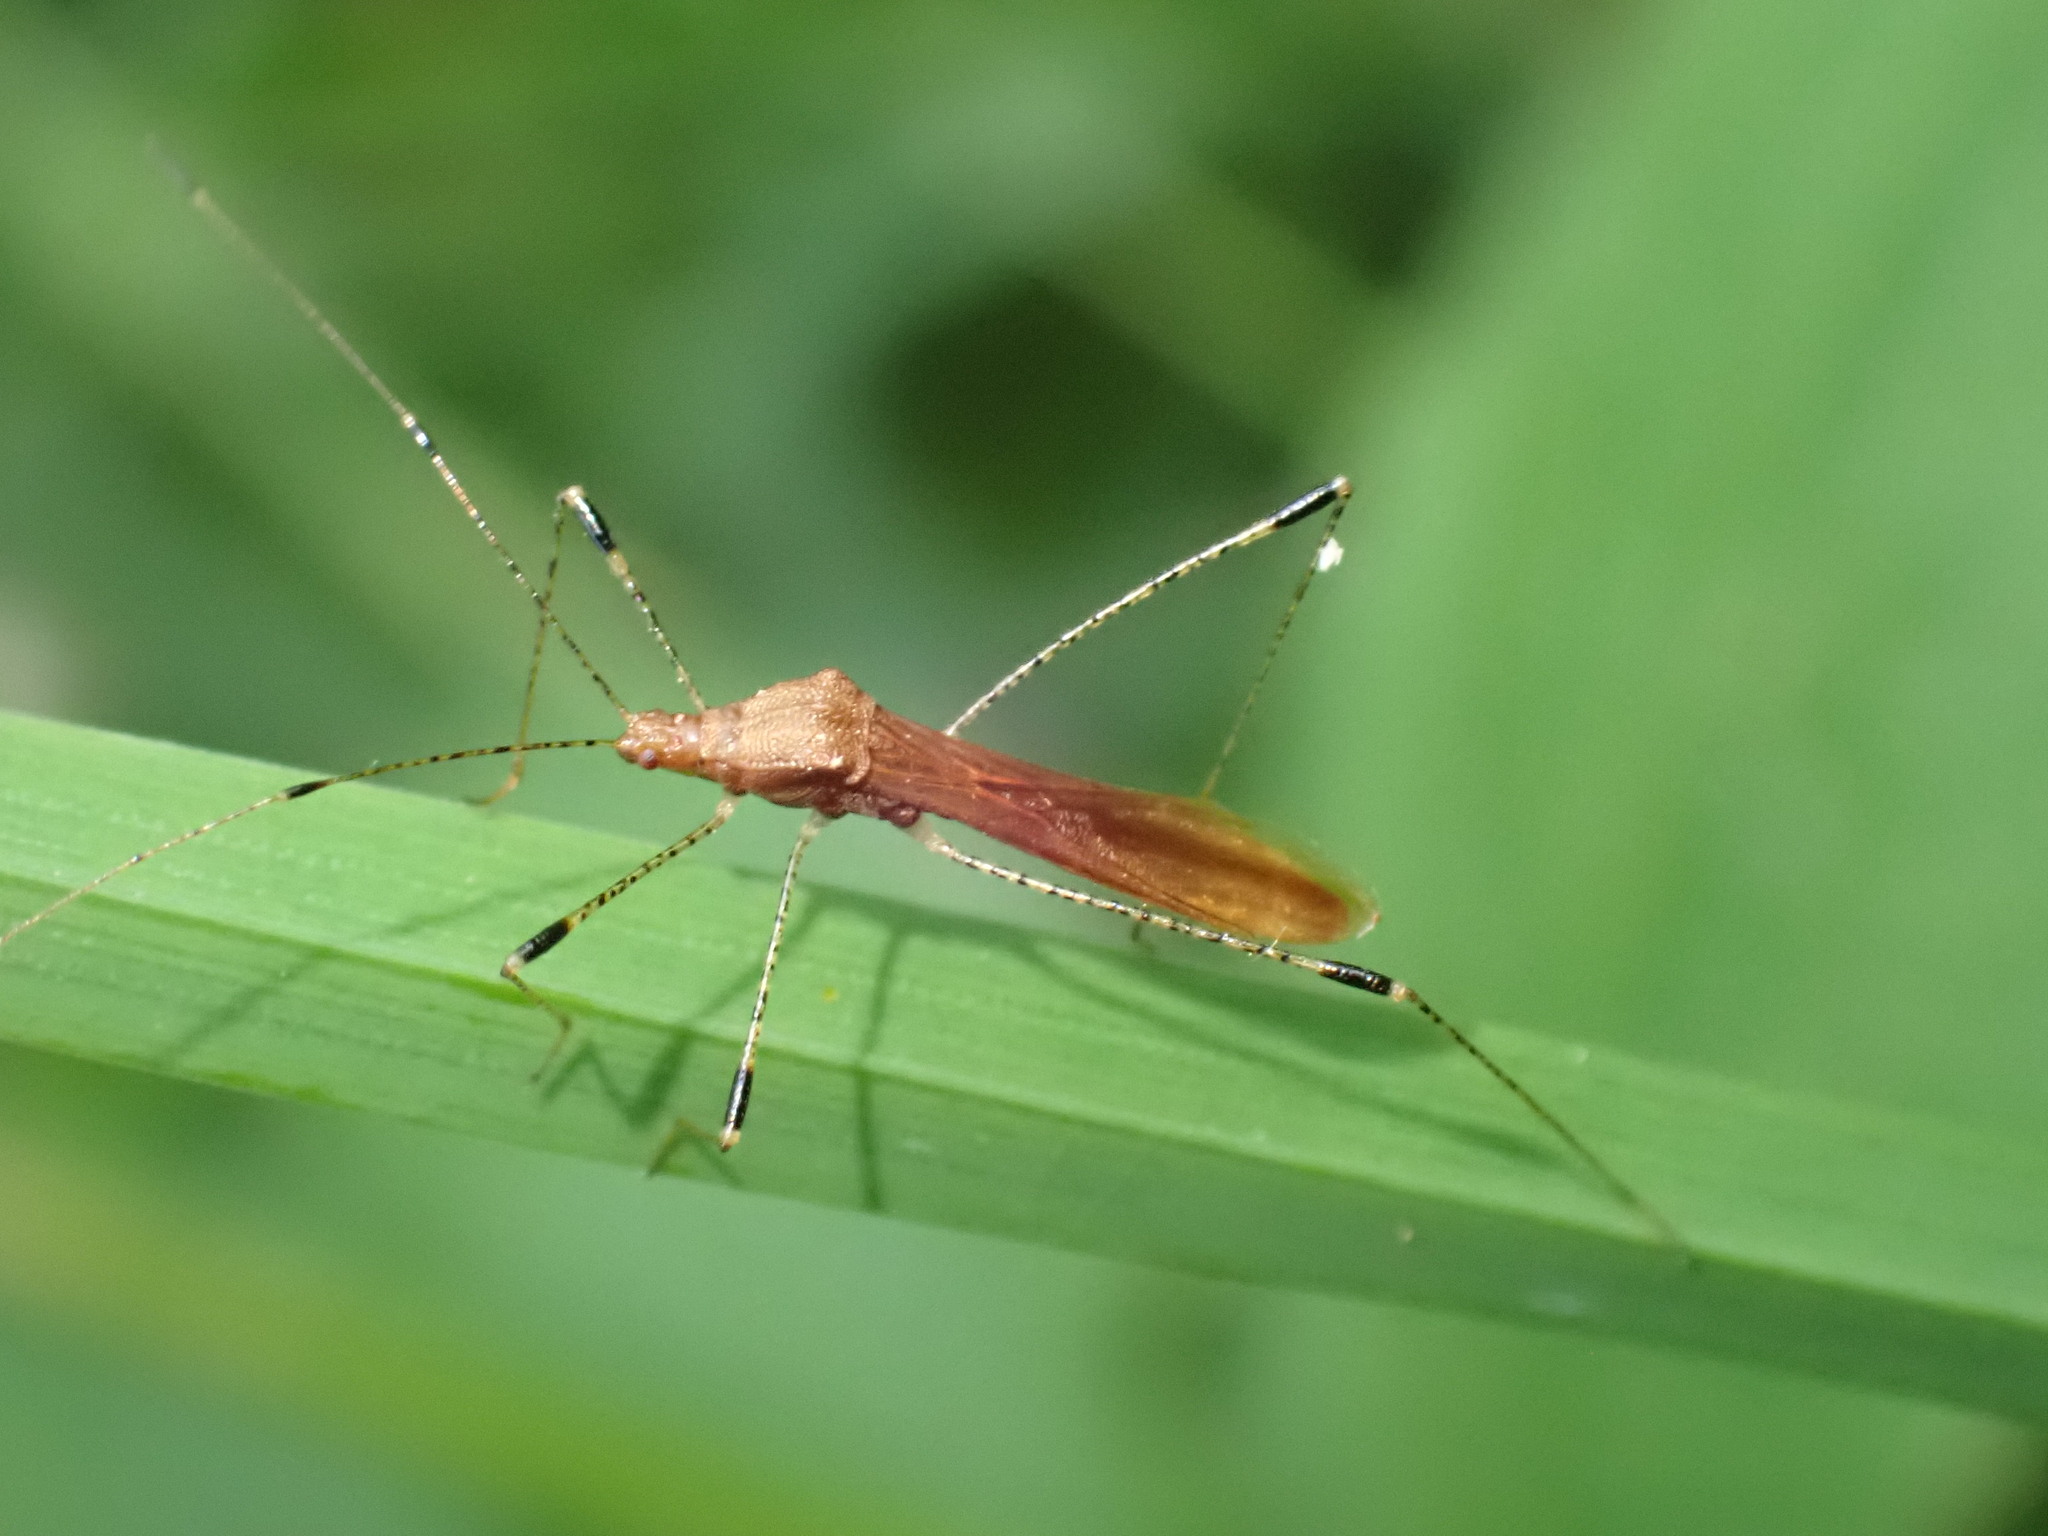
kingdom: Animalia
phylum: Arthropoda
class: Insecta
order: Hemiptera
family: Berytidae
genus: Metatropis
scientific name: Metatropis rufescens
